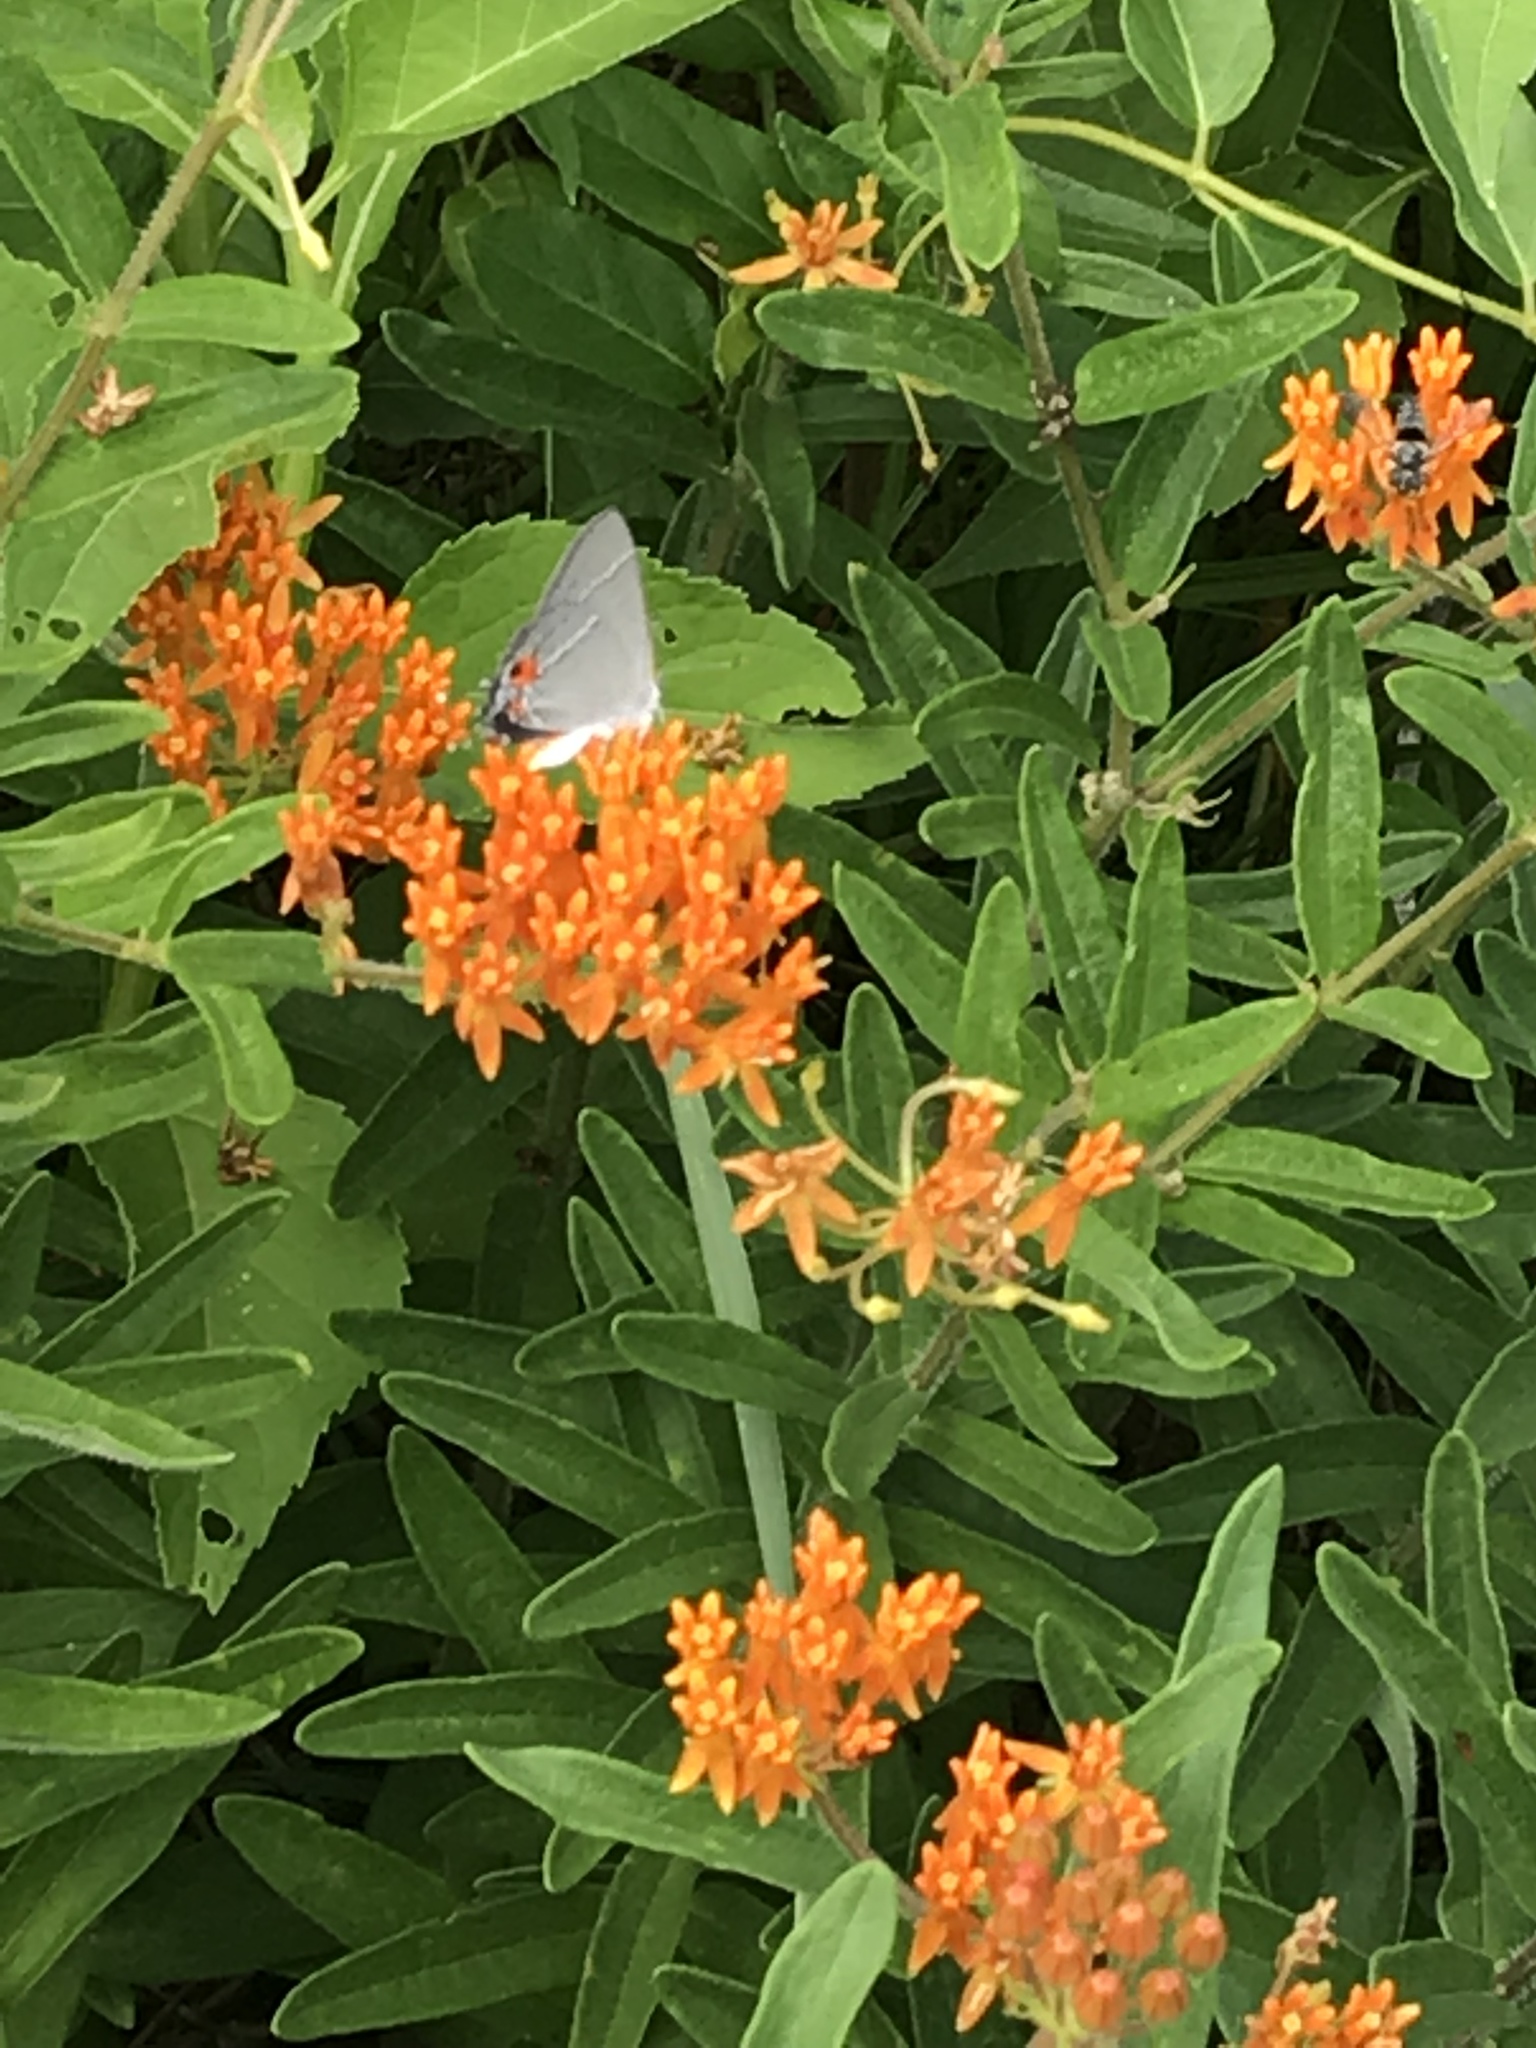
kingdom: Plantae
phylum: Tracheophyta
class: Magnoliopsida
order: Gentianales
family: Apocynaceae
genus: Asclepias
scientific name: Asclepias tuberosa
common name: Butterfly milkweed
